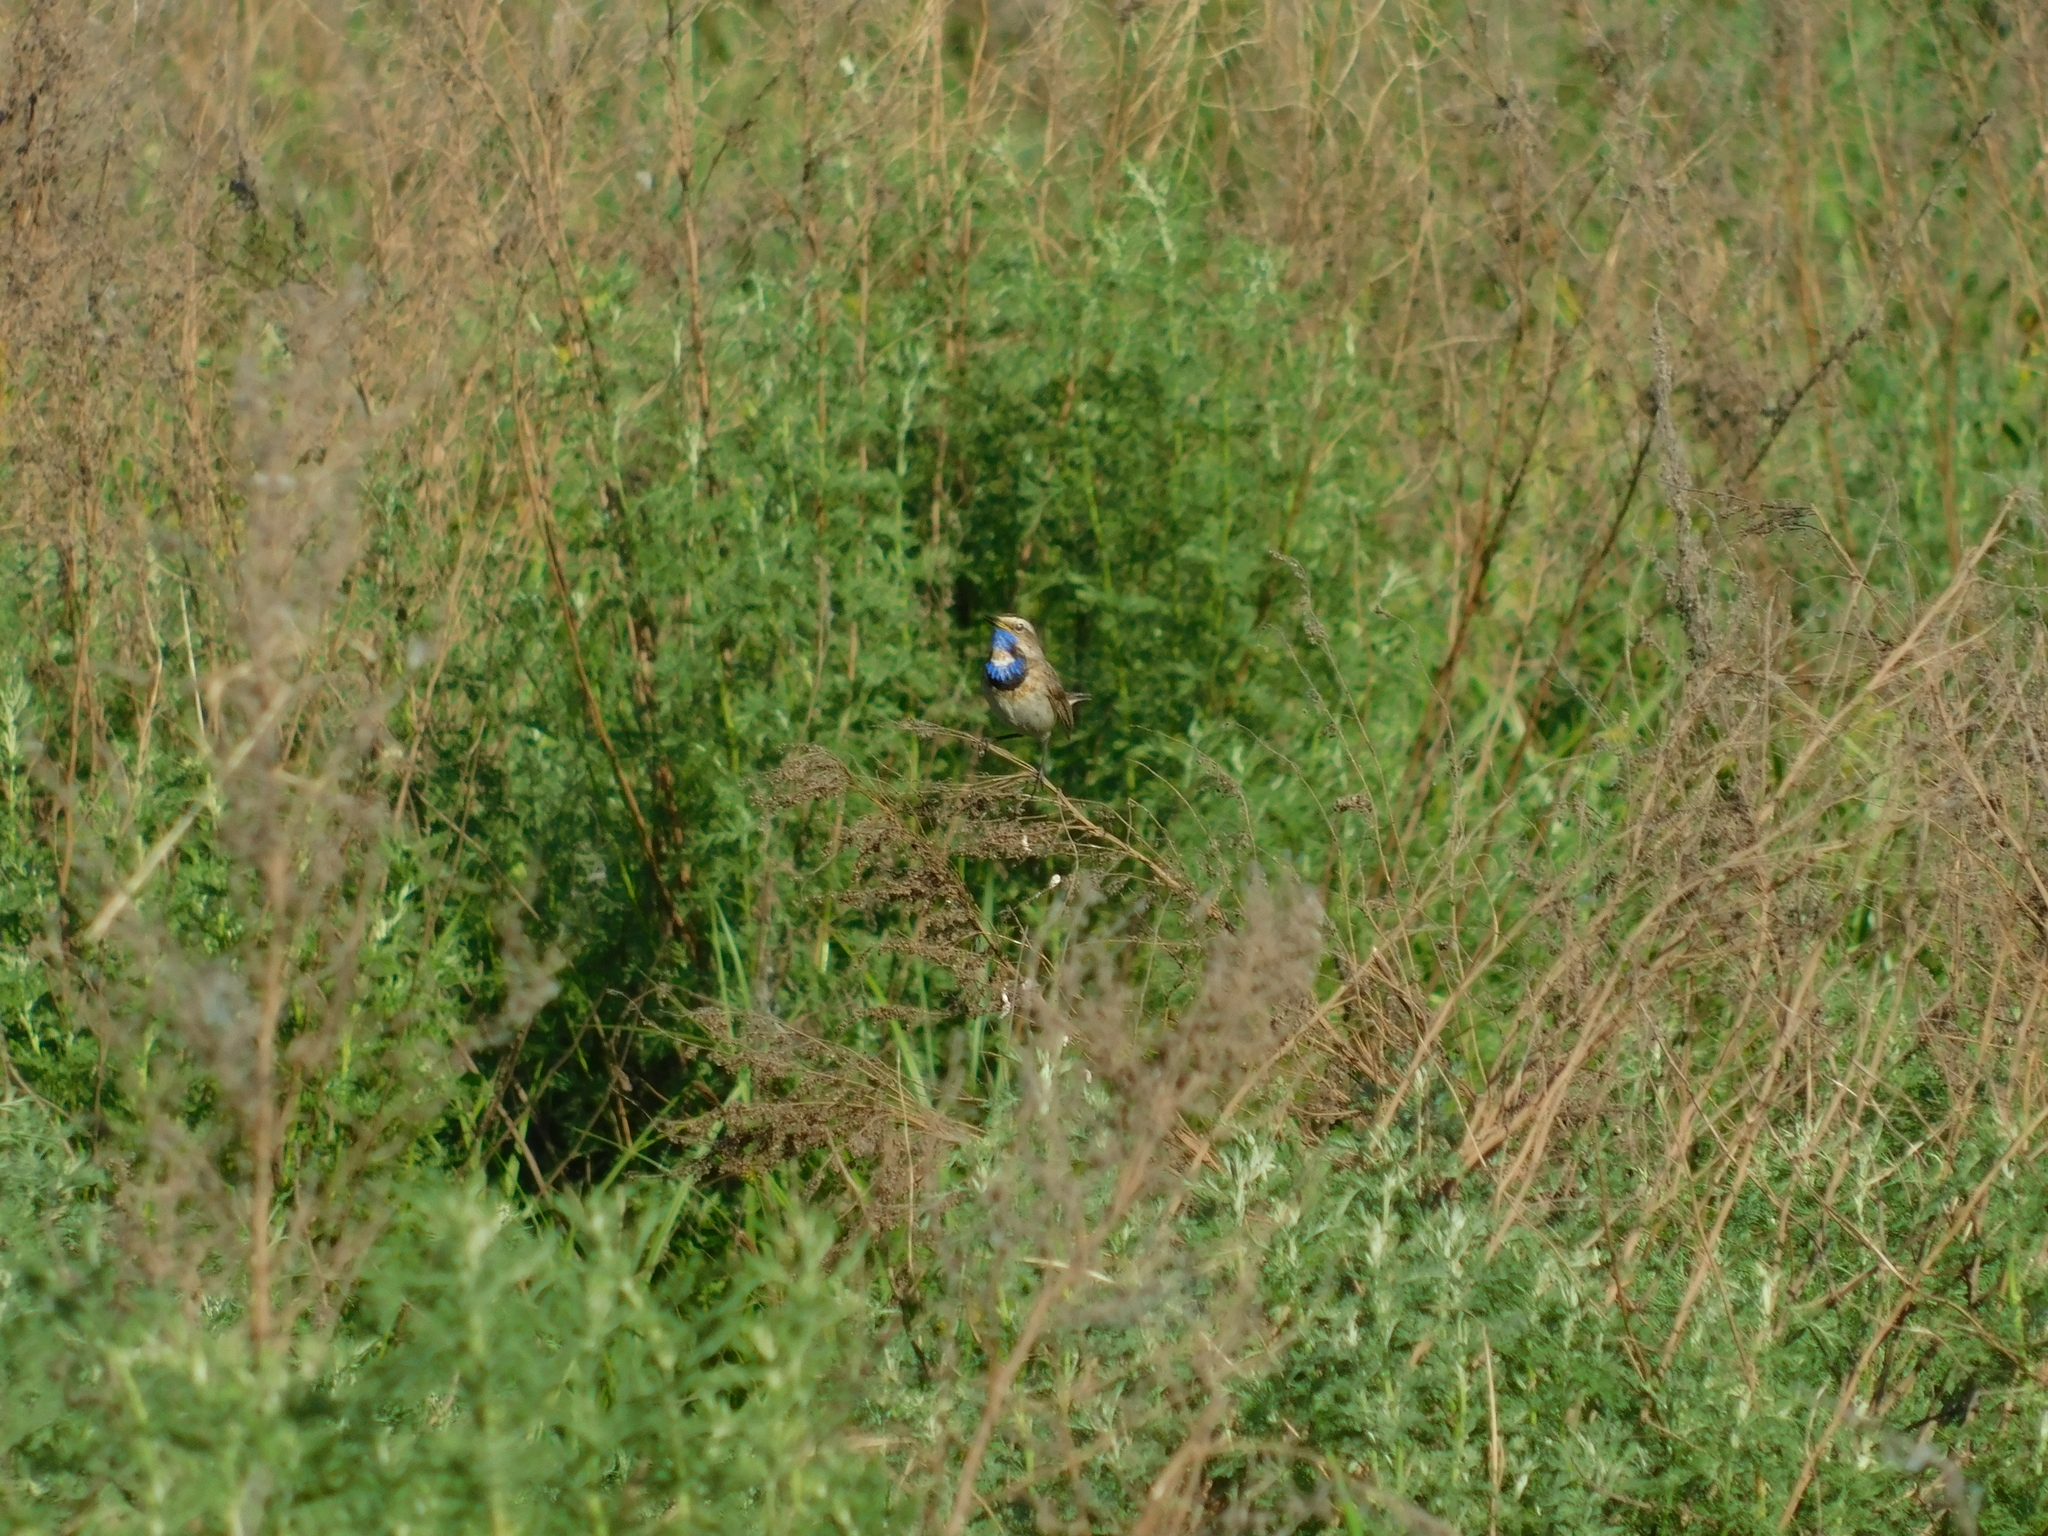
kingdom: Animalia
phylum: Chordata
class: Aves
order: Passeriformes
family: Muscicapidae
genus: Luscinia
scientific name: Luscinia svecica
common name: Bluethroat
